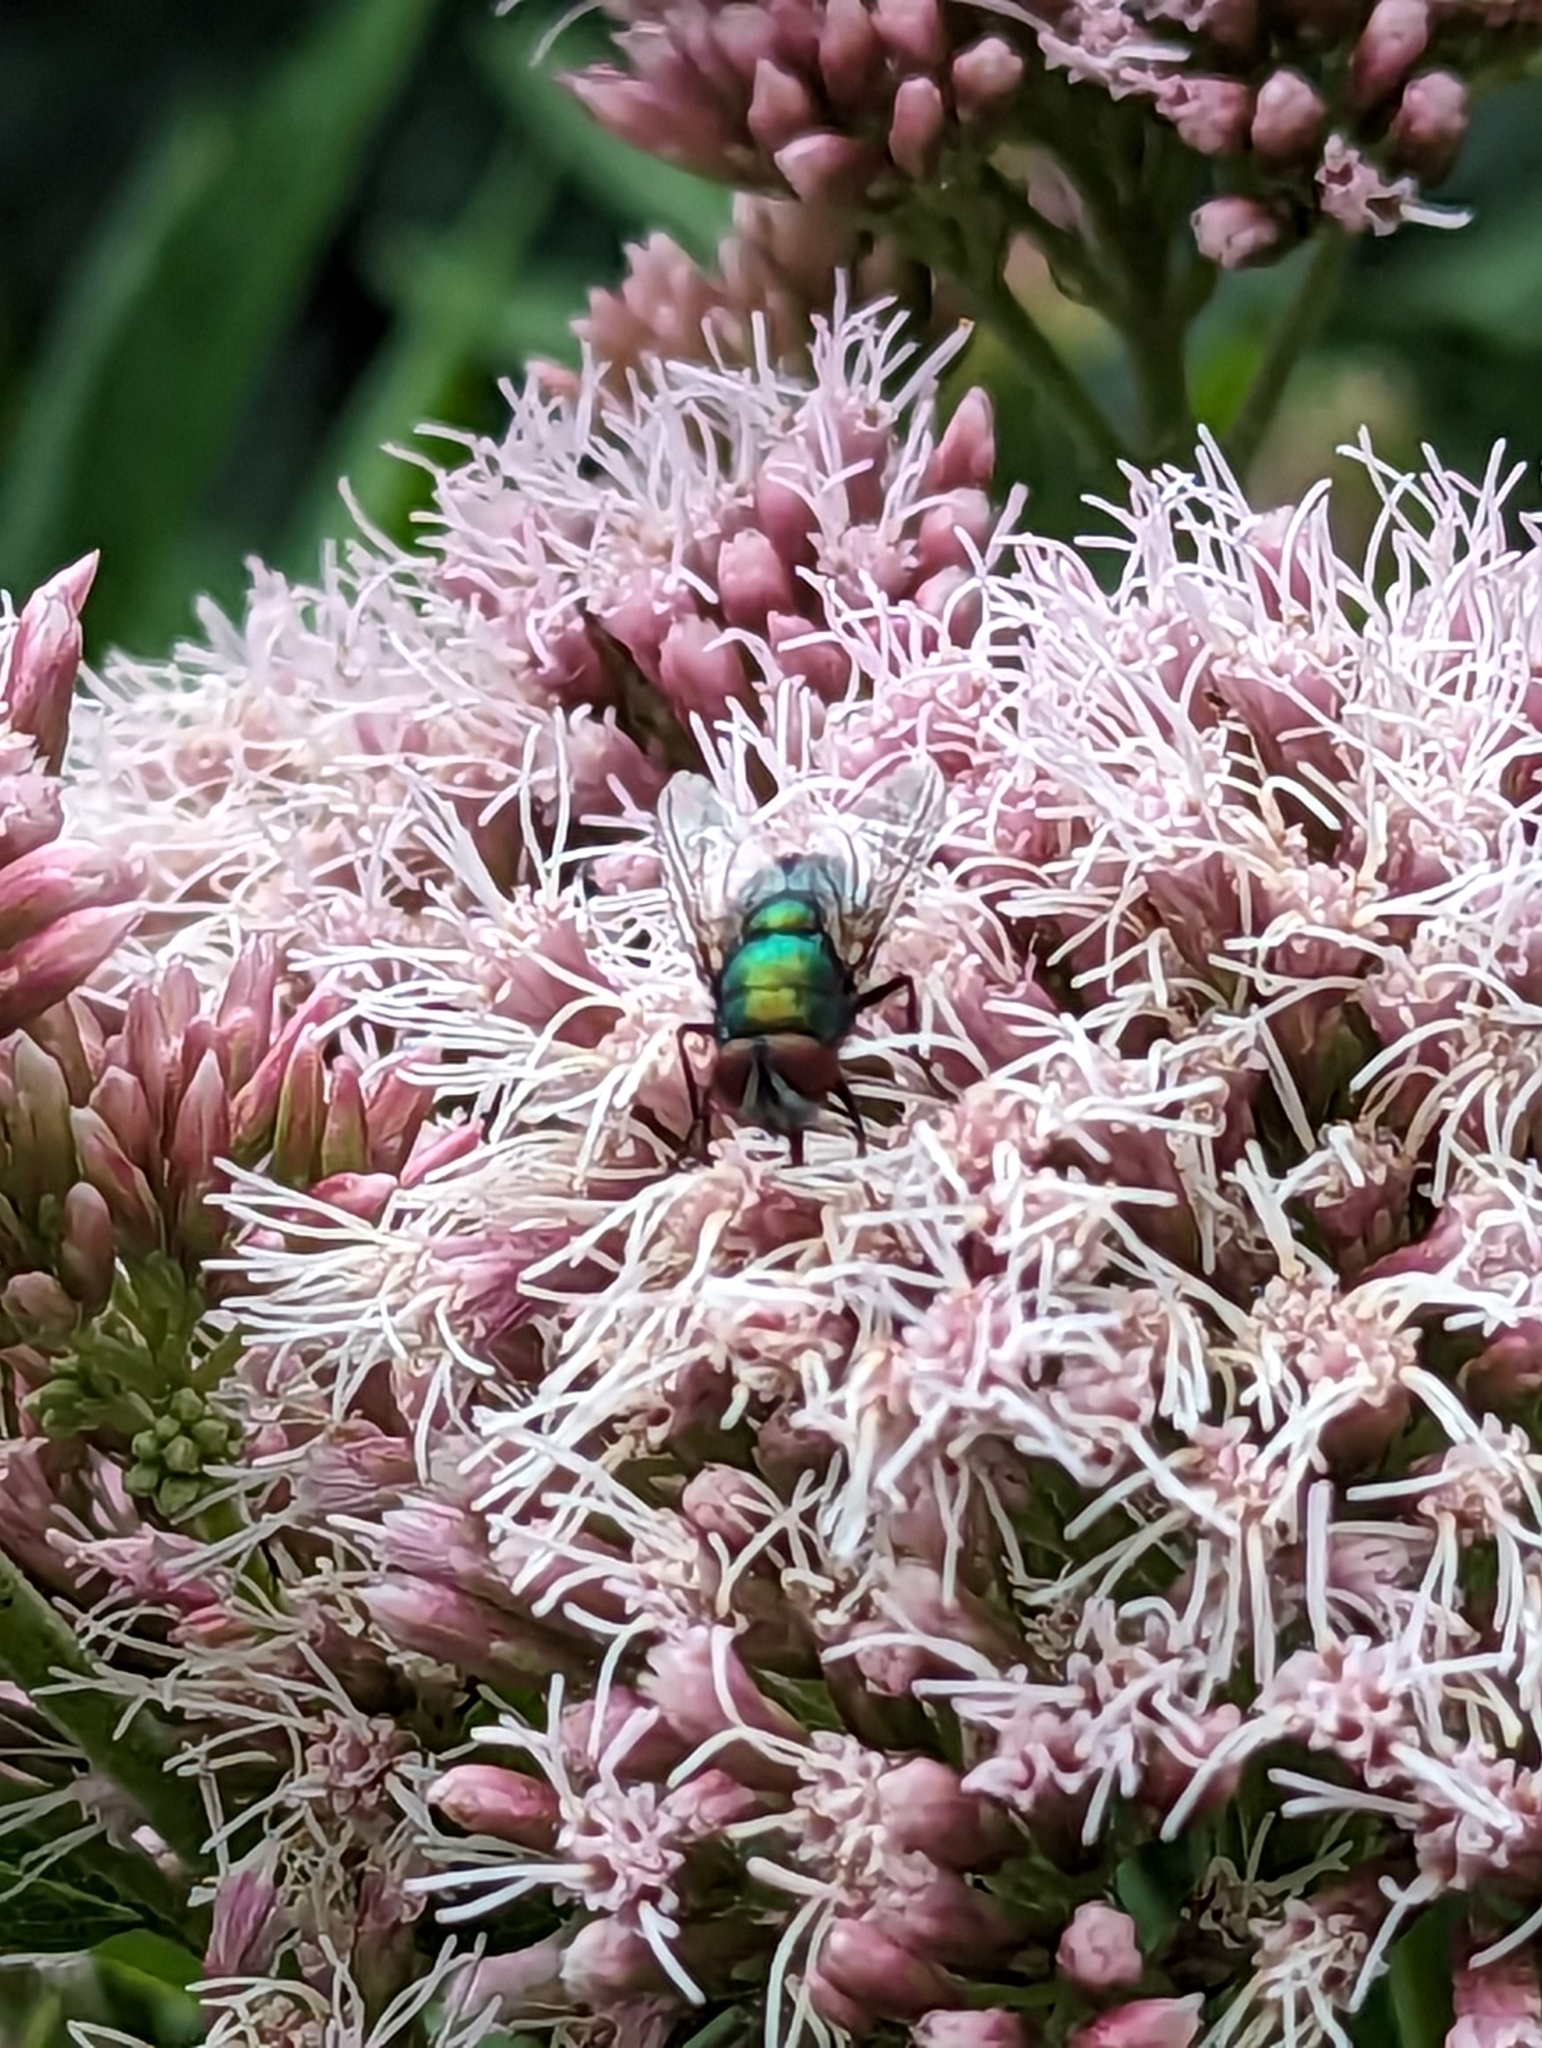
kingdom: Animalia
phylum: Arthropoda
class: Insecta
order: Diptera
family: Calliphoridae
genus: Lucilia
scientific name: Lucilia
